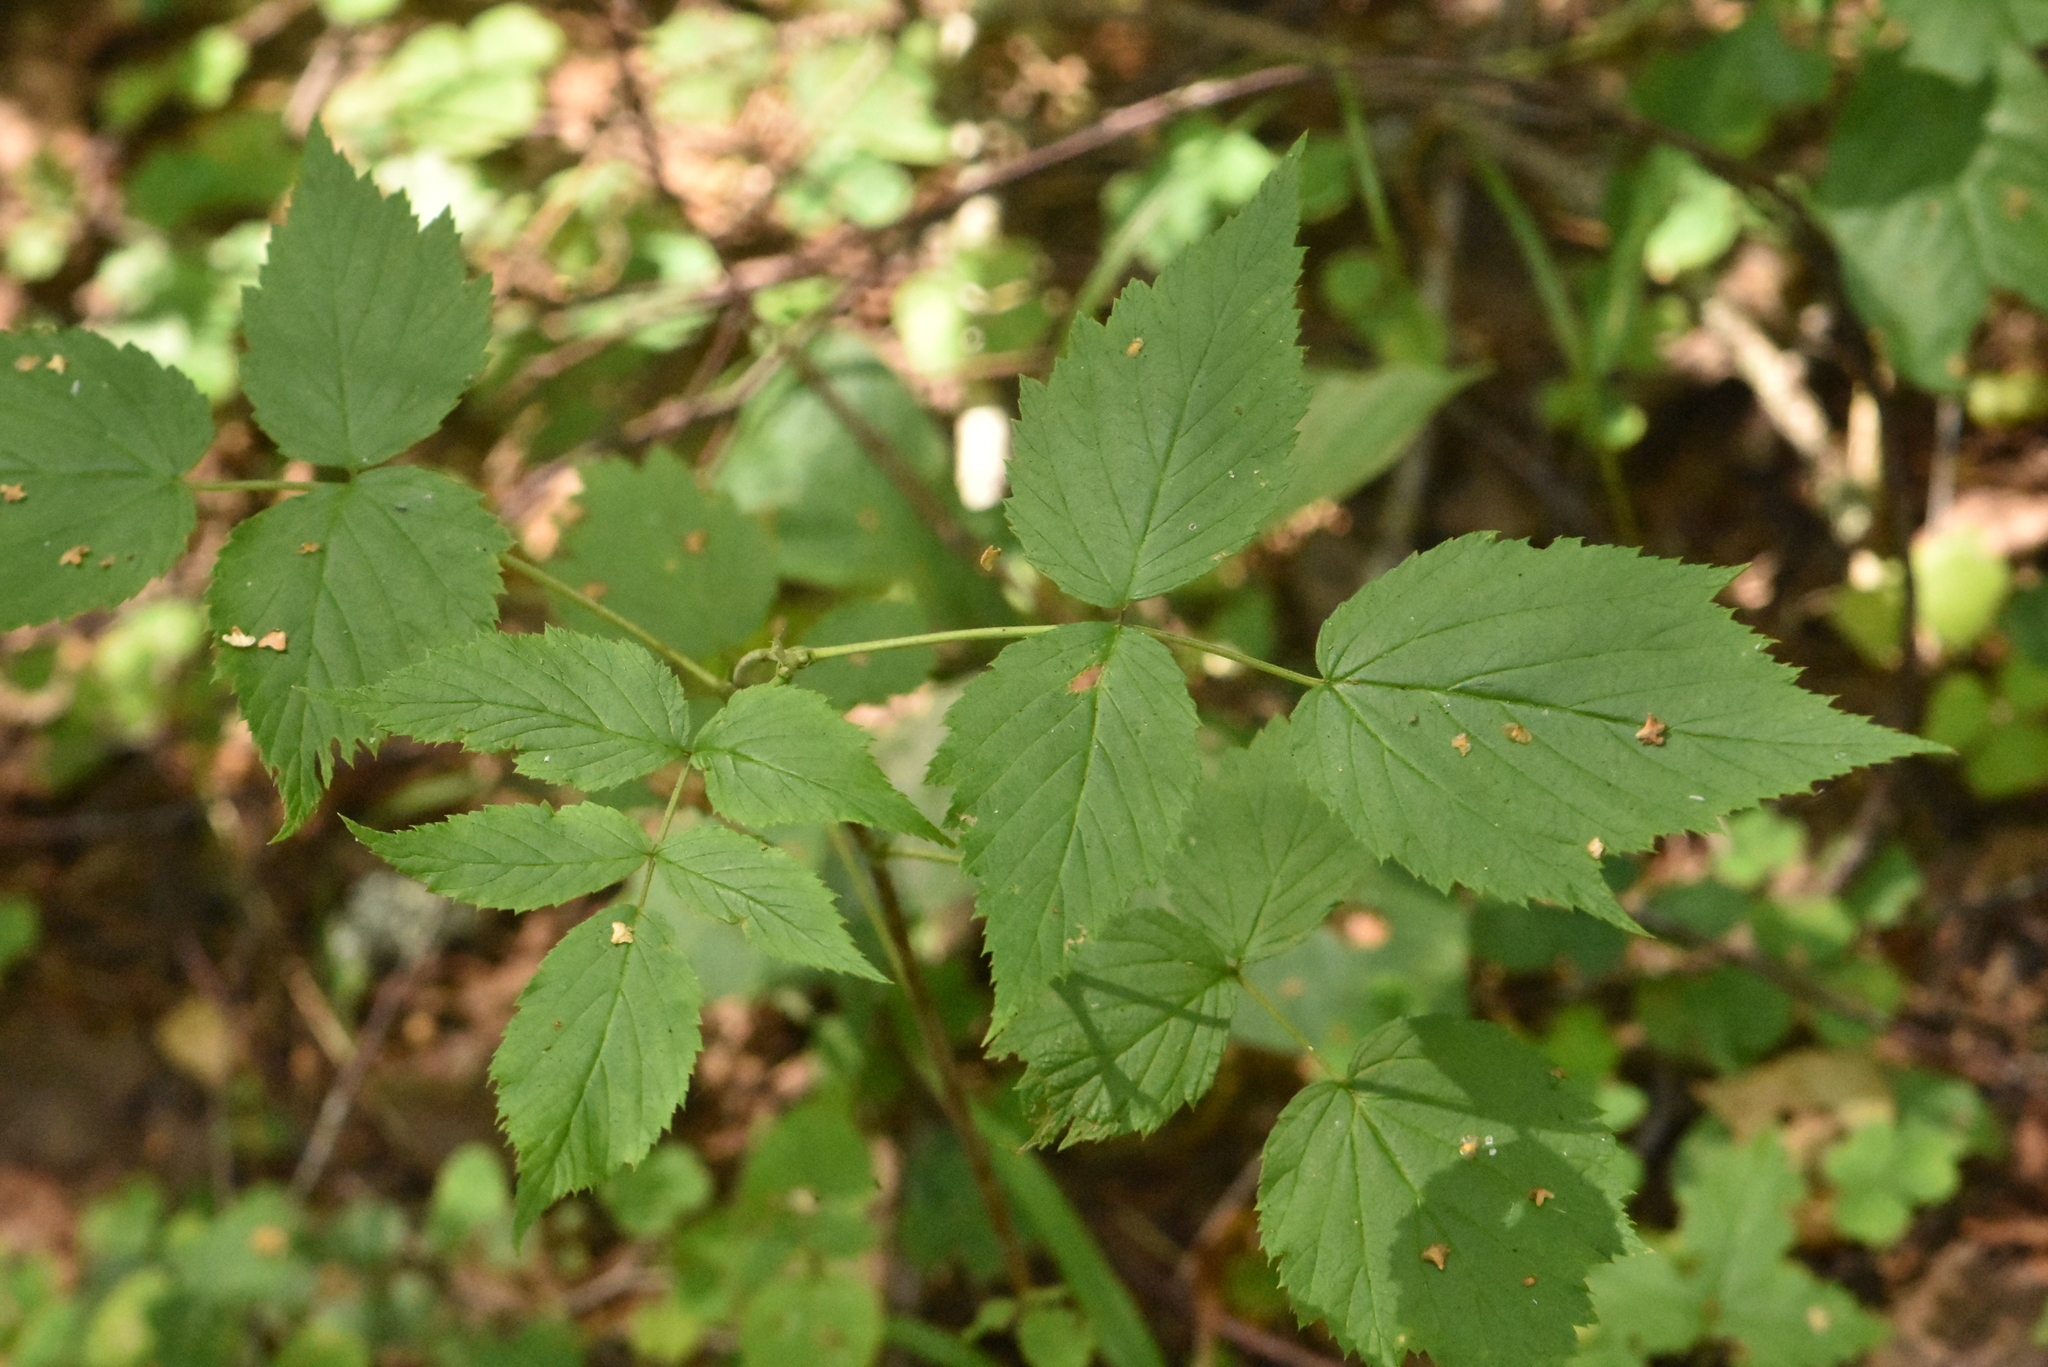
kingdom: Plantae
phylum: Tracheophyta
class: Magnoliopsida
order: Rosales
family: Rosaceae
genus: Rubus
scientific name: Rubus idaeus
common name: Raspberry
